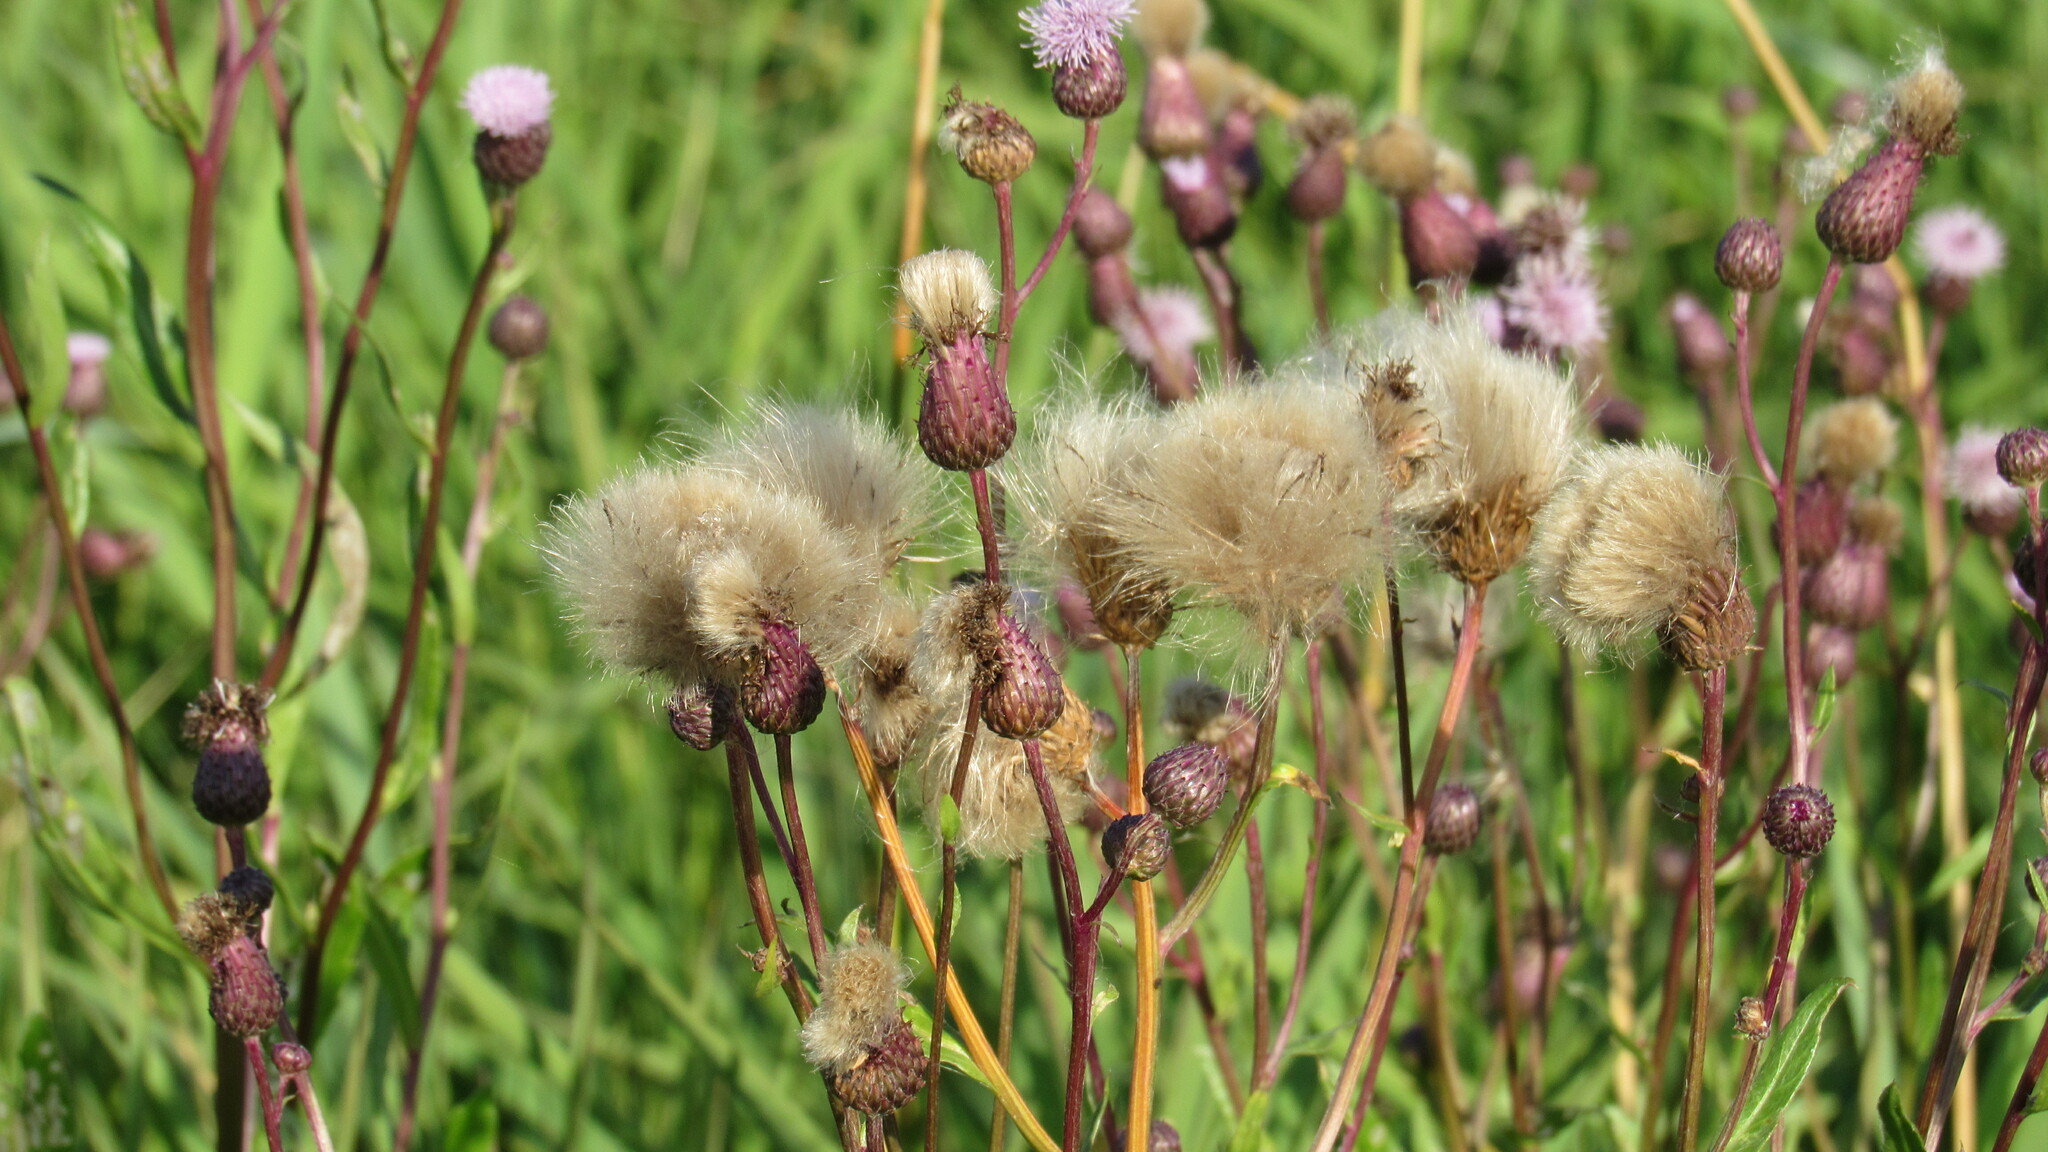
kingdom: Plantae
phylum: Tracheophyta
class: Magnoliopsida
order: Asterales
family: Asteraceae
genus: Cirsium
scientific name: Cirsium arvense
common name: Creeping thistle
